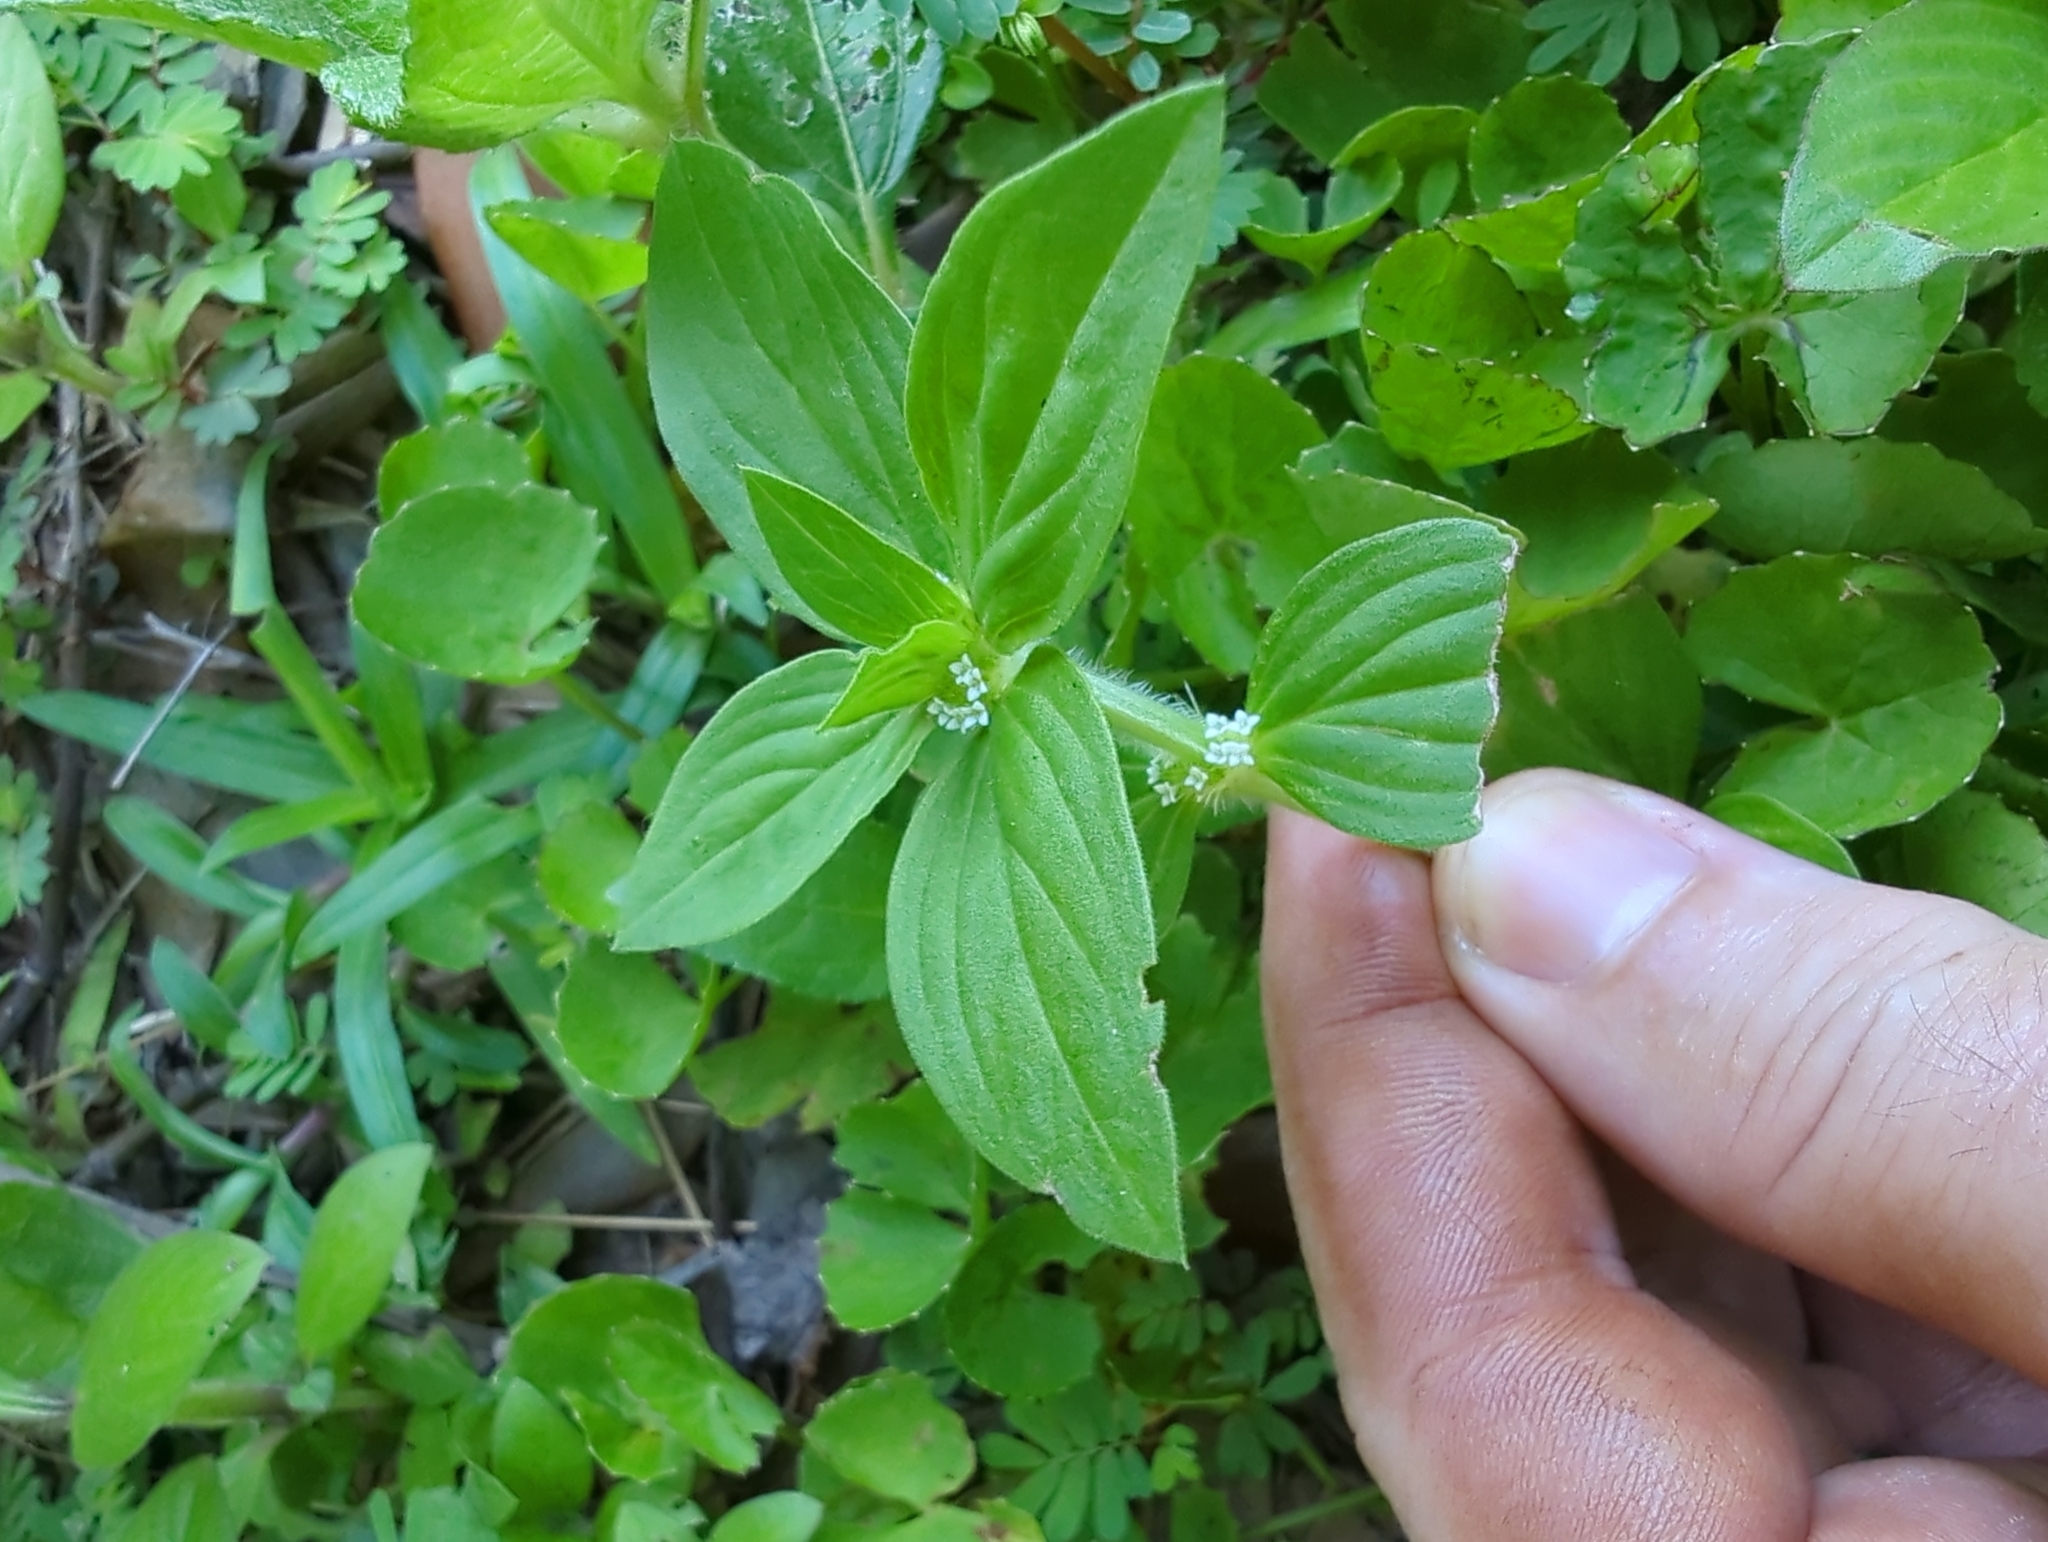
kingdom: Plantae
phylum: Tracheophyta
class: Magnoliopsida
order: Gentianales
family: Rubiaceae
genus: Mitracarpus
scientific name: Mitracarpus hirtus
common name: Tropical girdlepod
